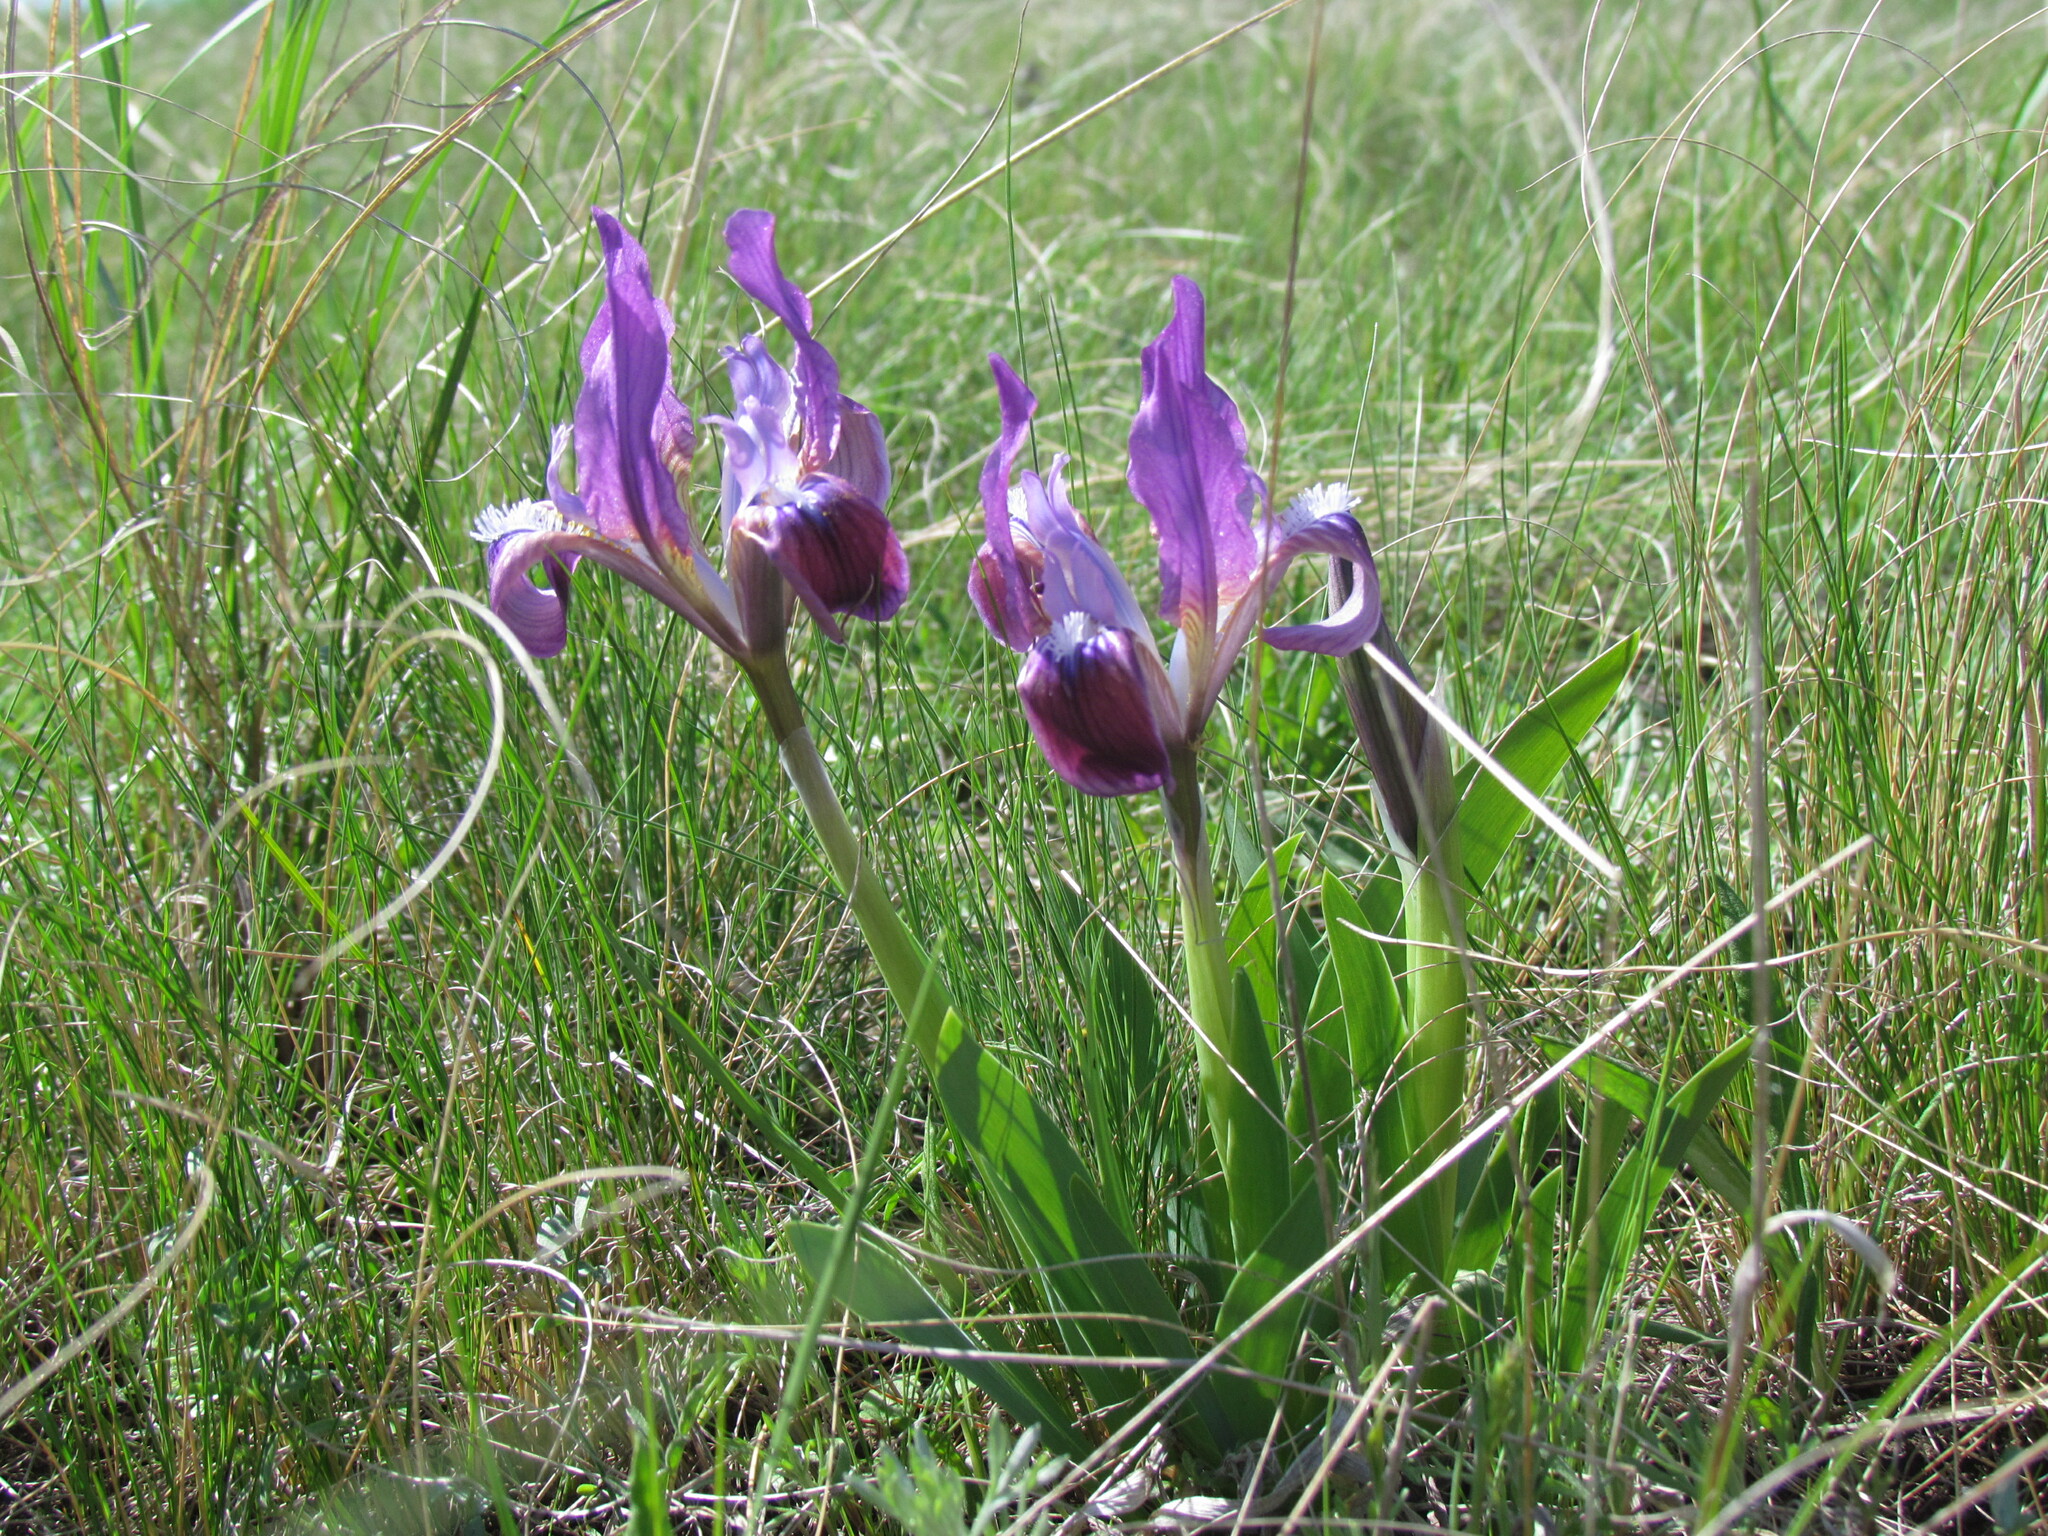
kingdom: Plantae
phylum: Tracheophyta
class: Liliopsida
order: Asparagales
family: Iridaceae
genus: Iris
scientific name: Iris pumila
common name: Dwarf iris
